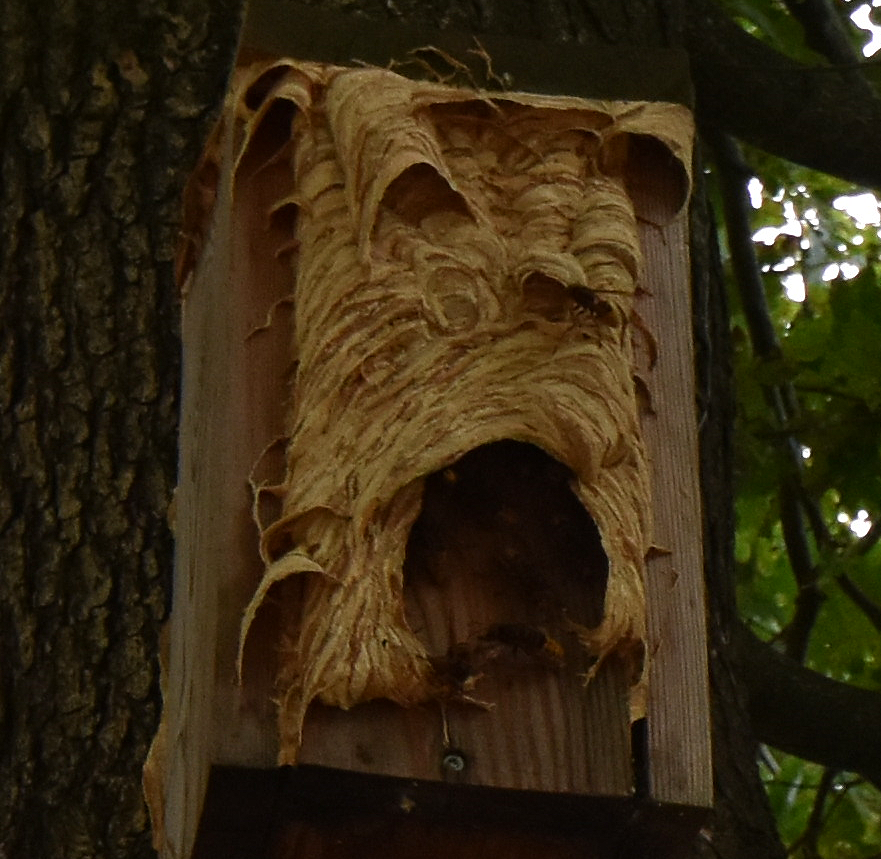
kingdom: Animalia
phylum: Arthropoda
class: Insecta
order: Hymenoptera
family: Vespidae
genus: Vespa
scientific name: Vespa crabro
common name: Hornet
